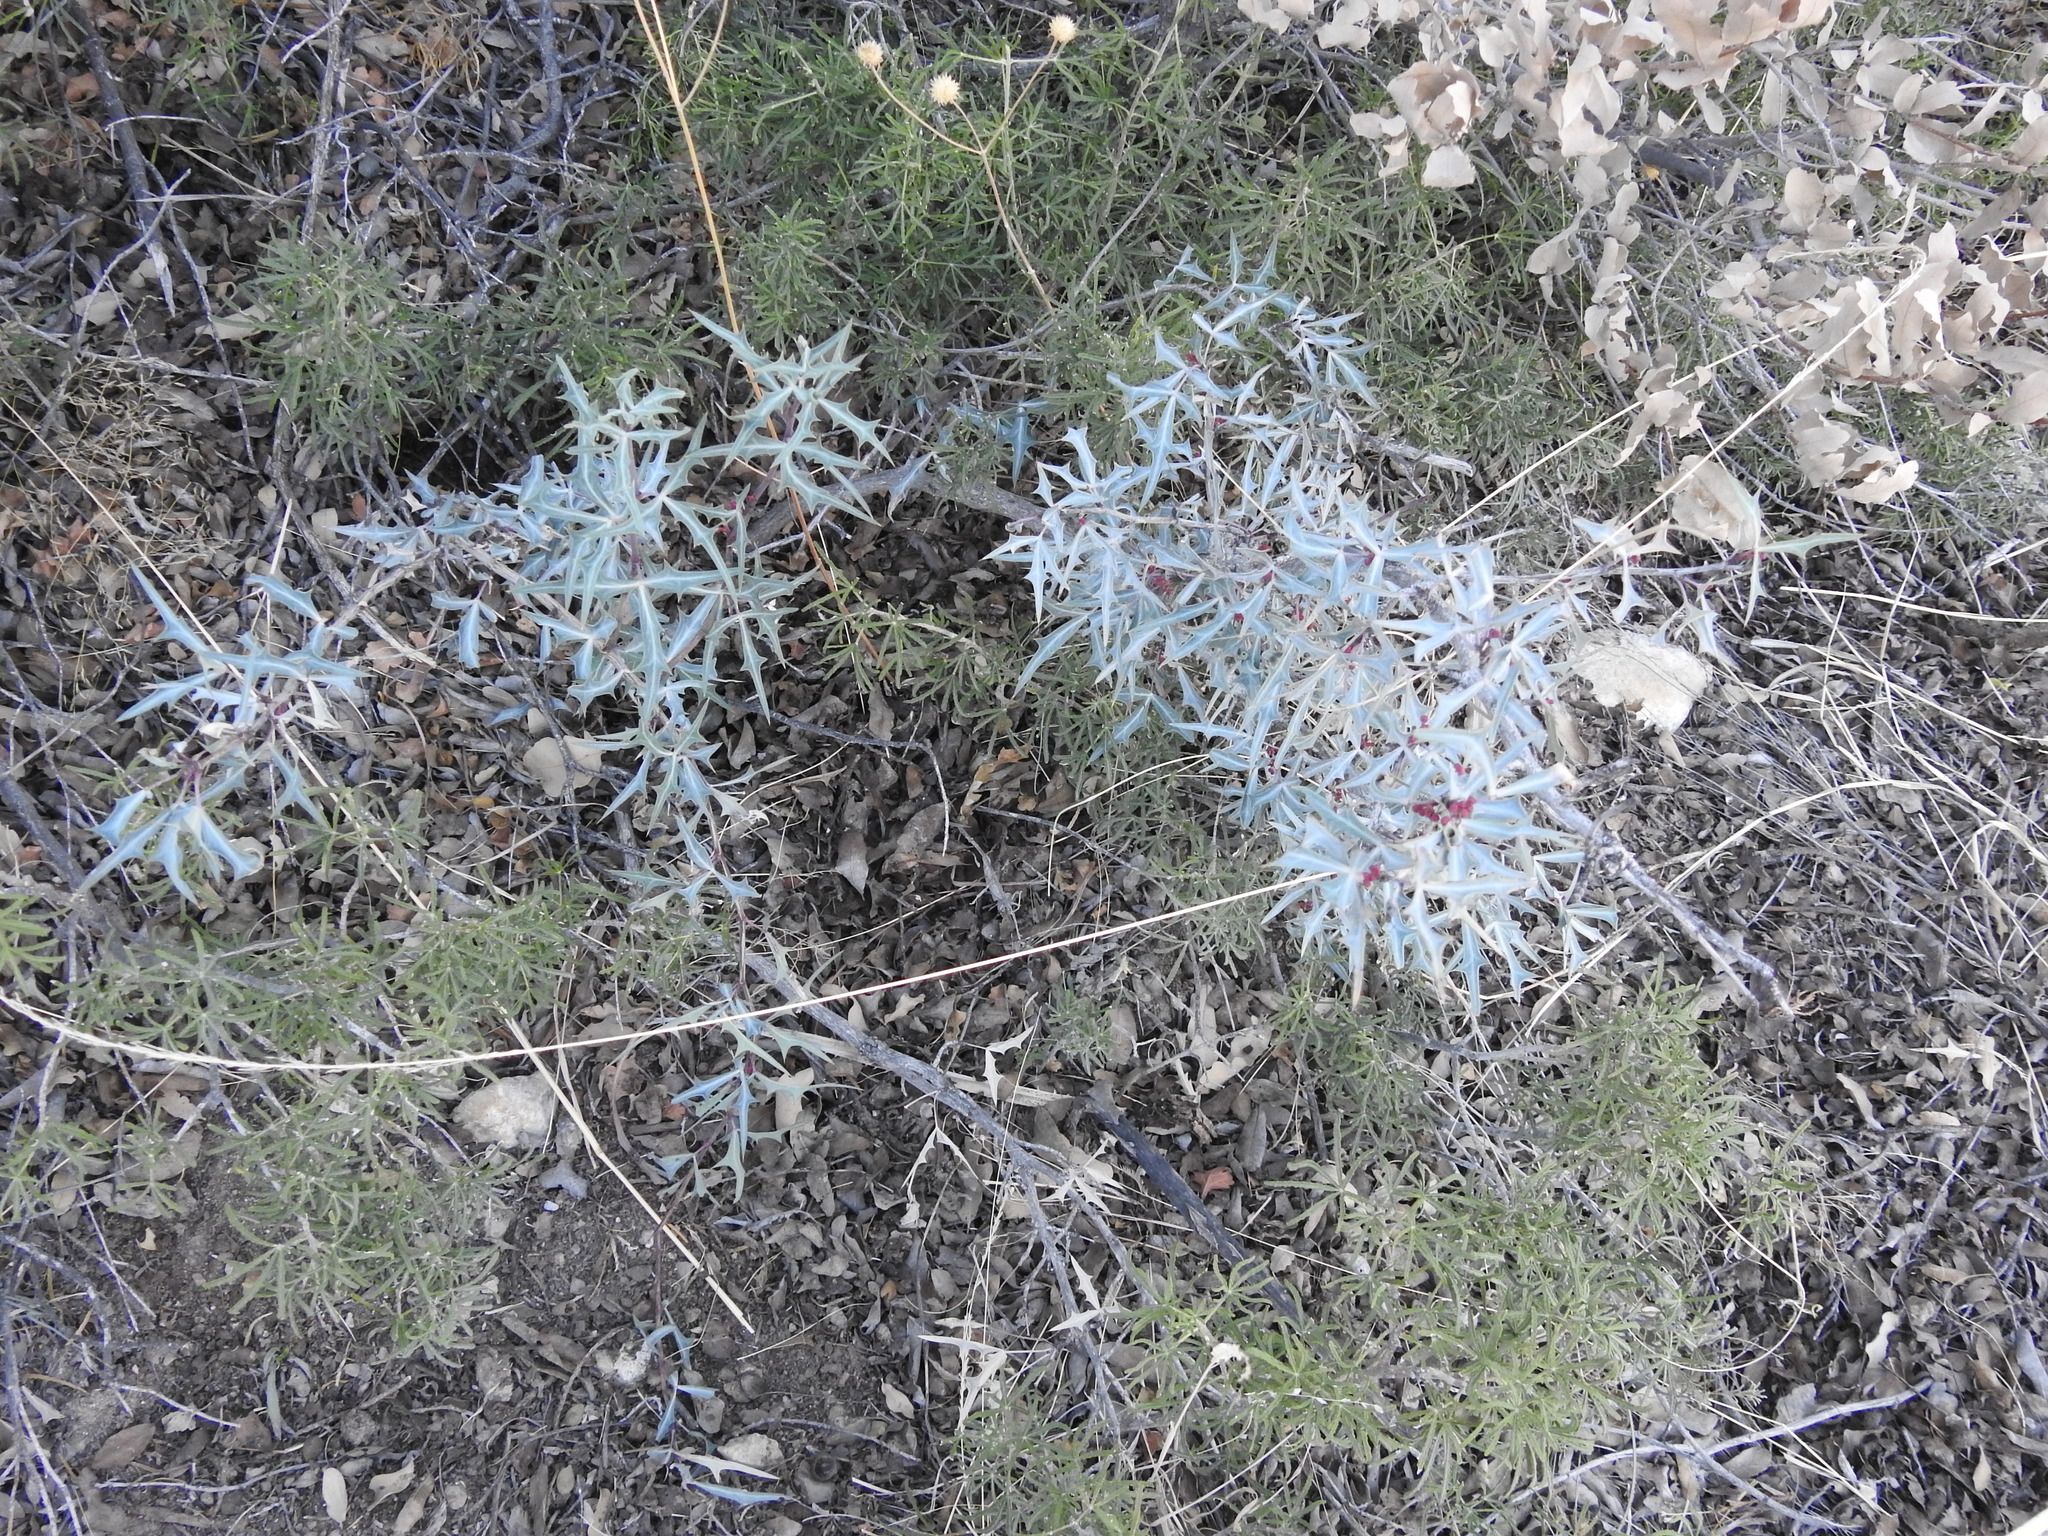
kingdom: Plantae
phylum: Tracheophyta
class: Magnoliopsida
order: Ranunculales
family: Berberidaceae
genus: Alloberberis
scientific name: Alloberberis trifoliolata
